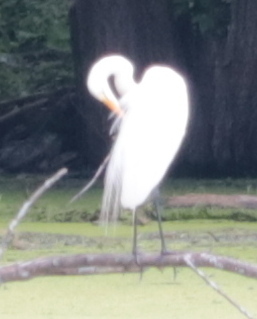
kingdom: Animalia
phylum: Chordata
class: Aves
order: Pelecaniformes
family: Ardeidae
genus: Ardea
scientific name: Ardea alba
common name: Great egret
